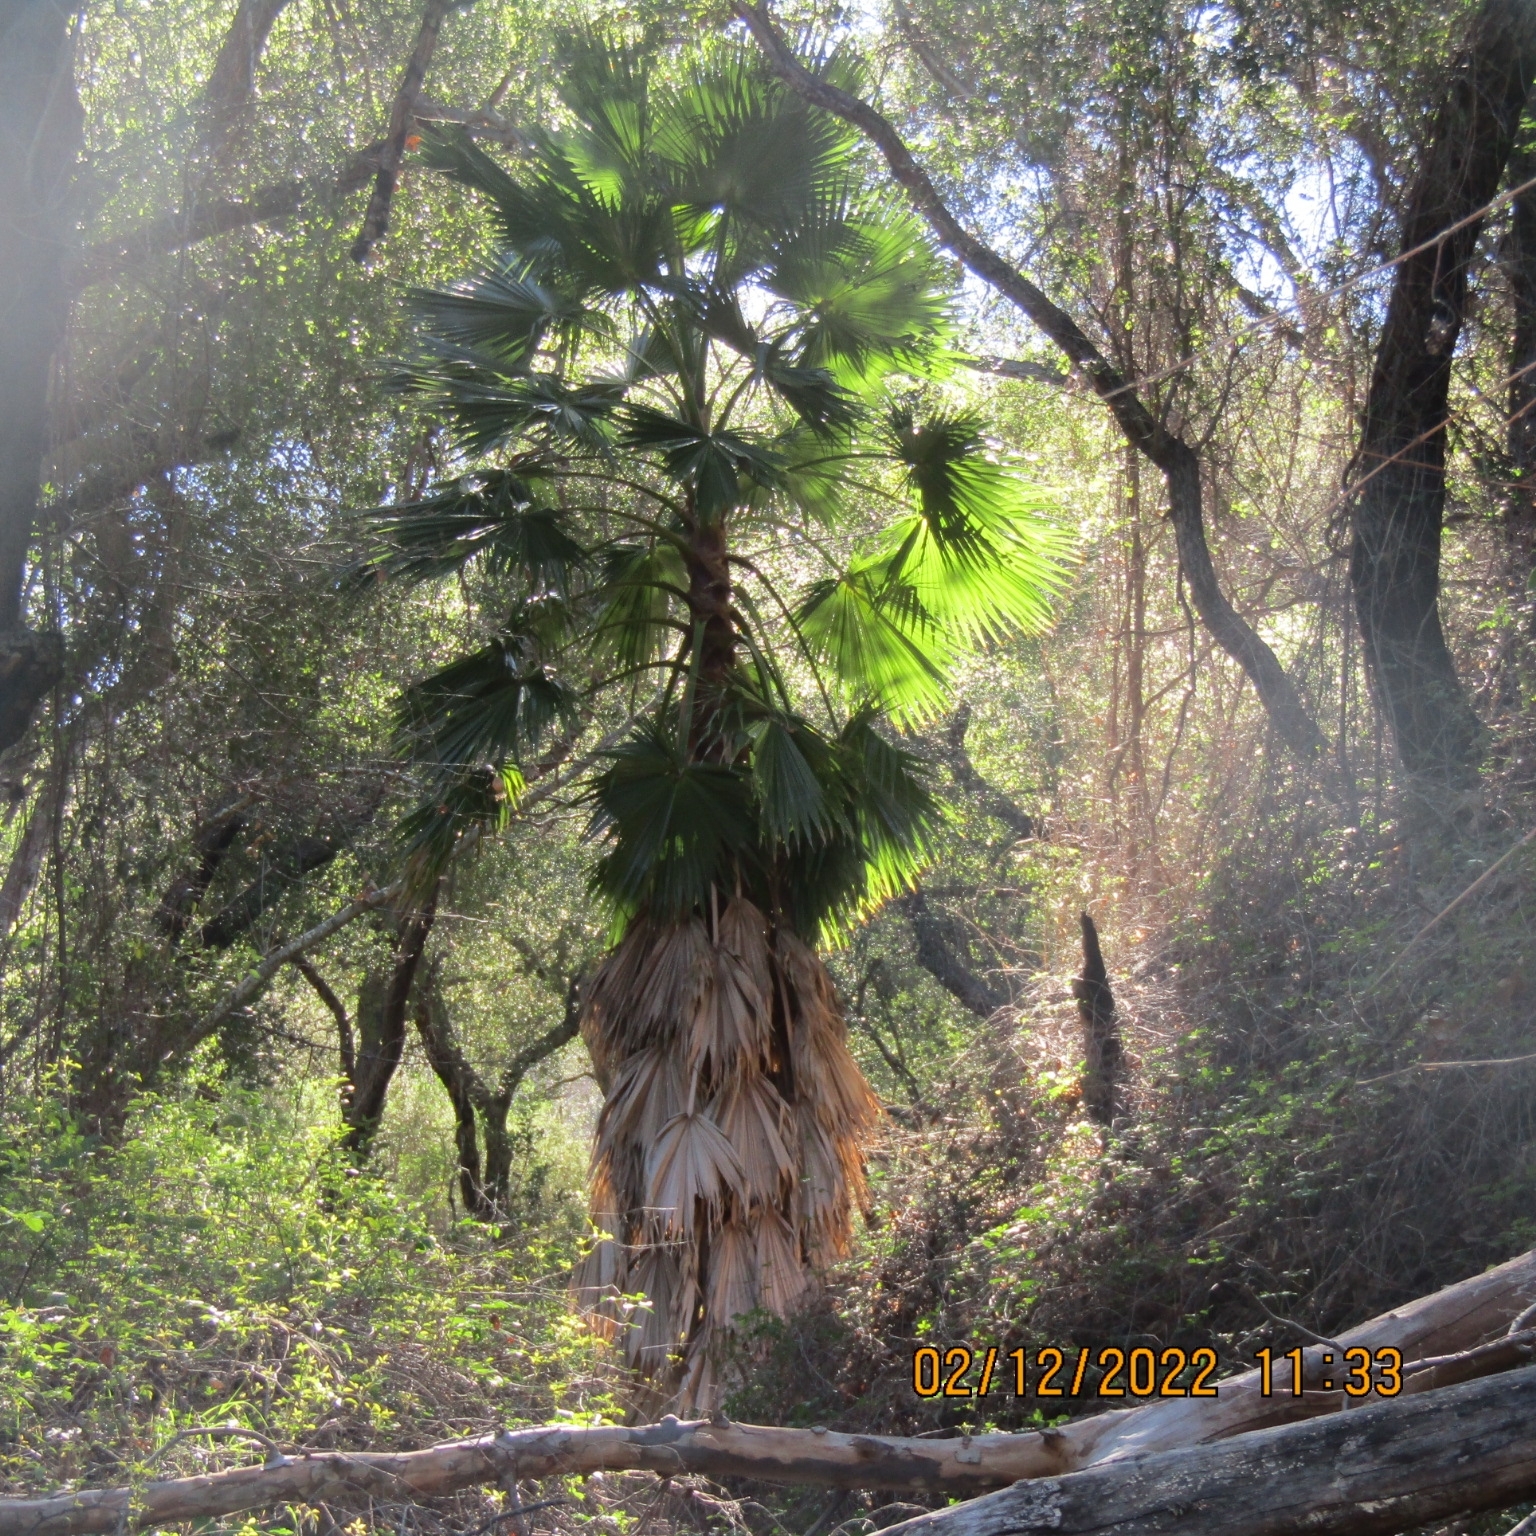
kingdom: Plantae
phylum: Tracheophyta
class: Liliopsida
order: Arecales
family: Arecaceae
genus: Washingtonia
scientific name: Washingtonia robusta
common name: Mexican fan palm
